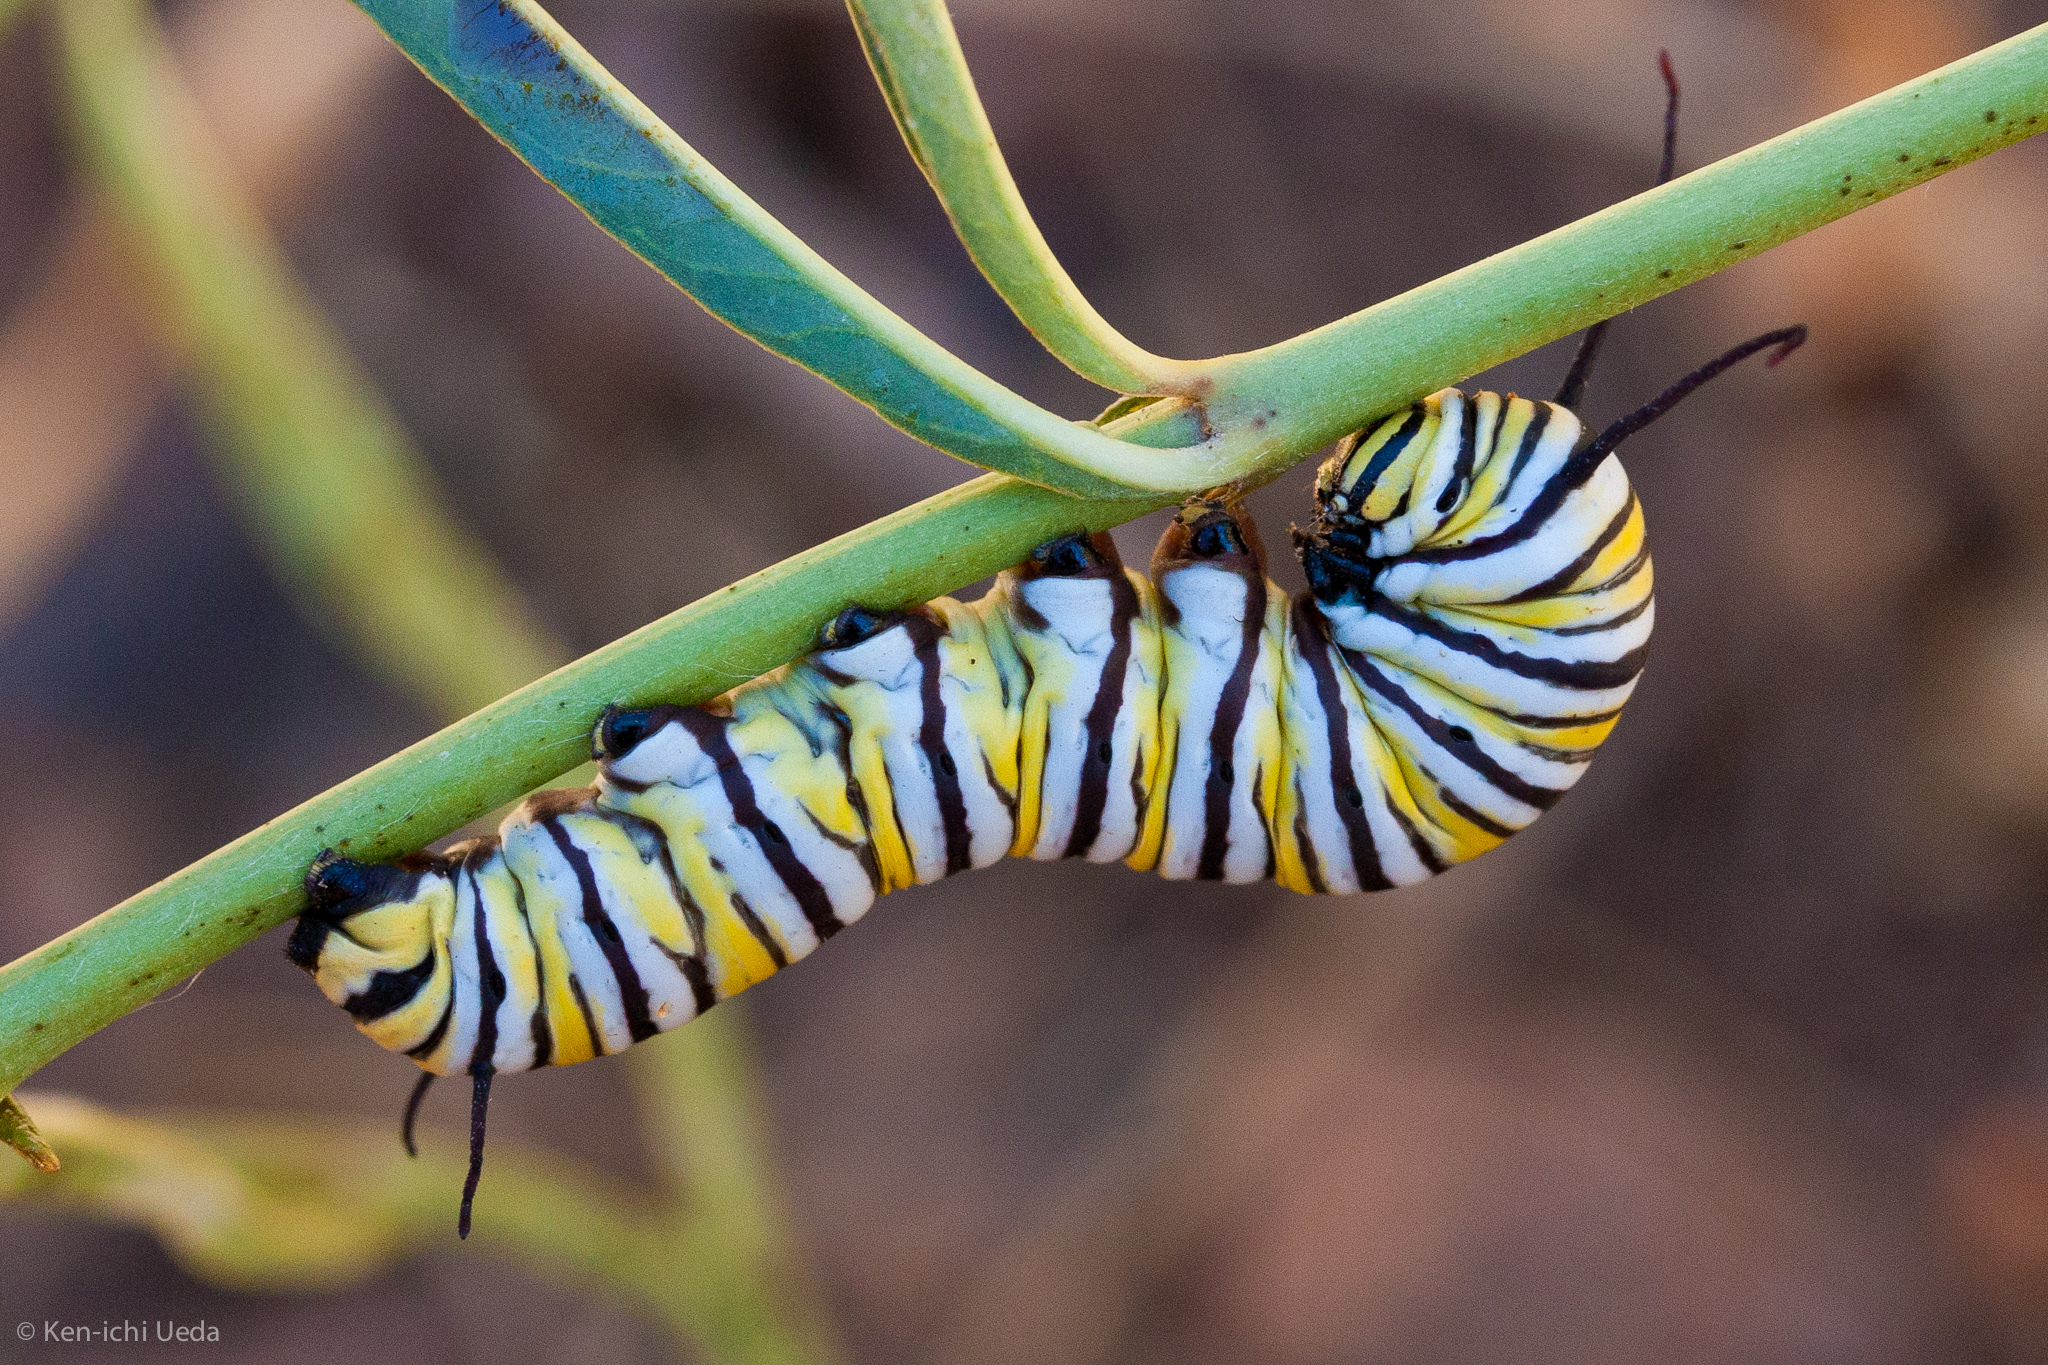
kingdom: Animalia
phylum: Arthropoda
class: Insecta
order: Lepidoptera
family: Nymphalidae
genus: Danaus
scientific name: Danaus plexippus
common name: Monarch
